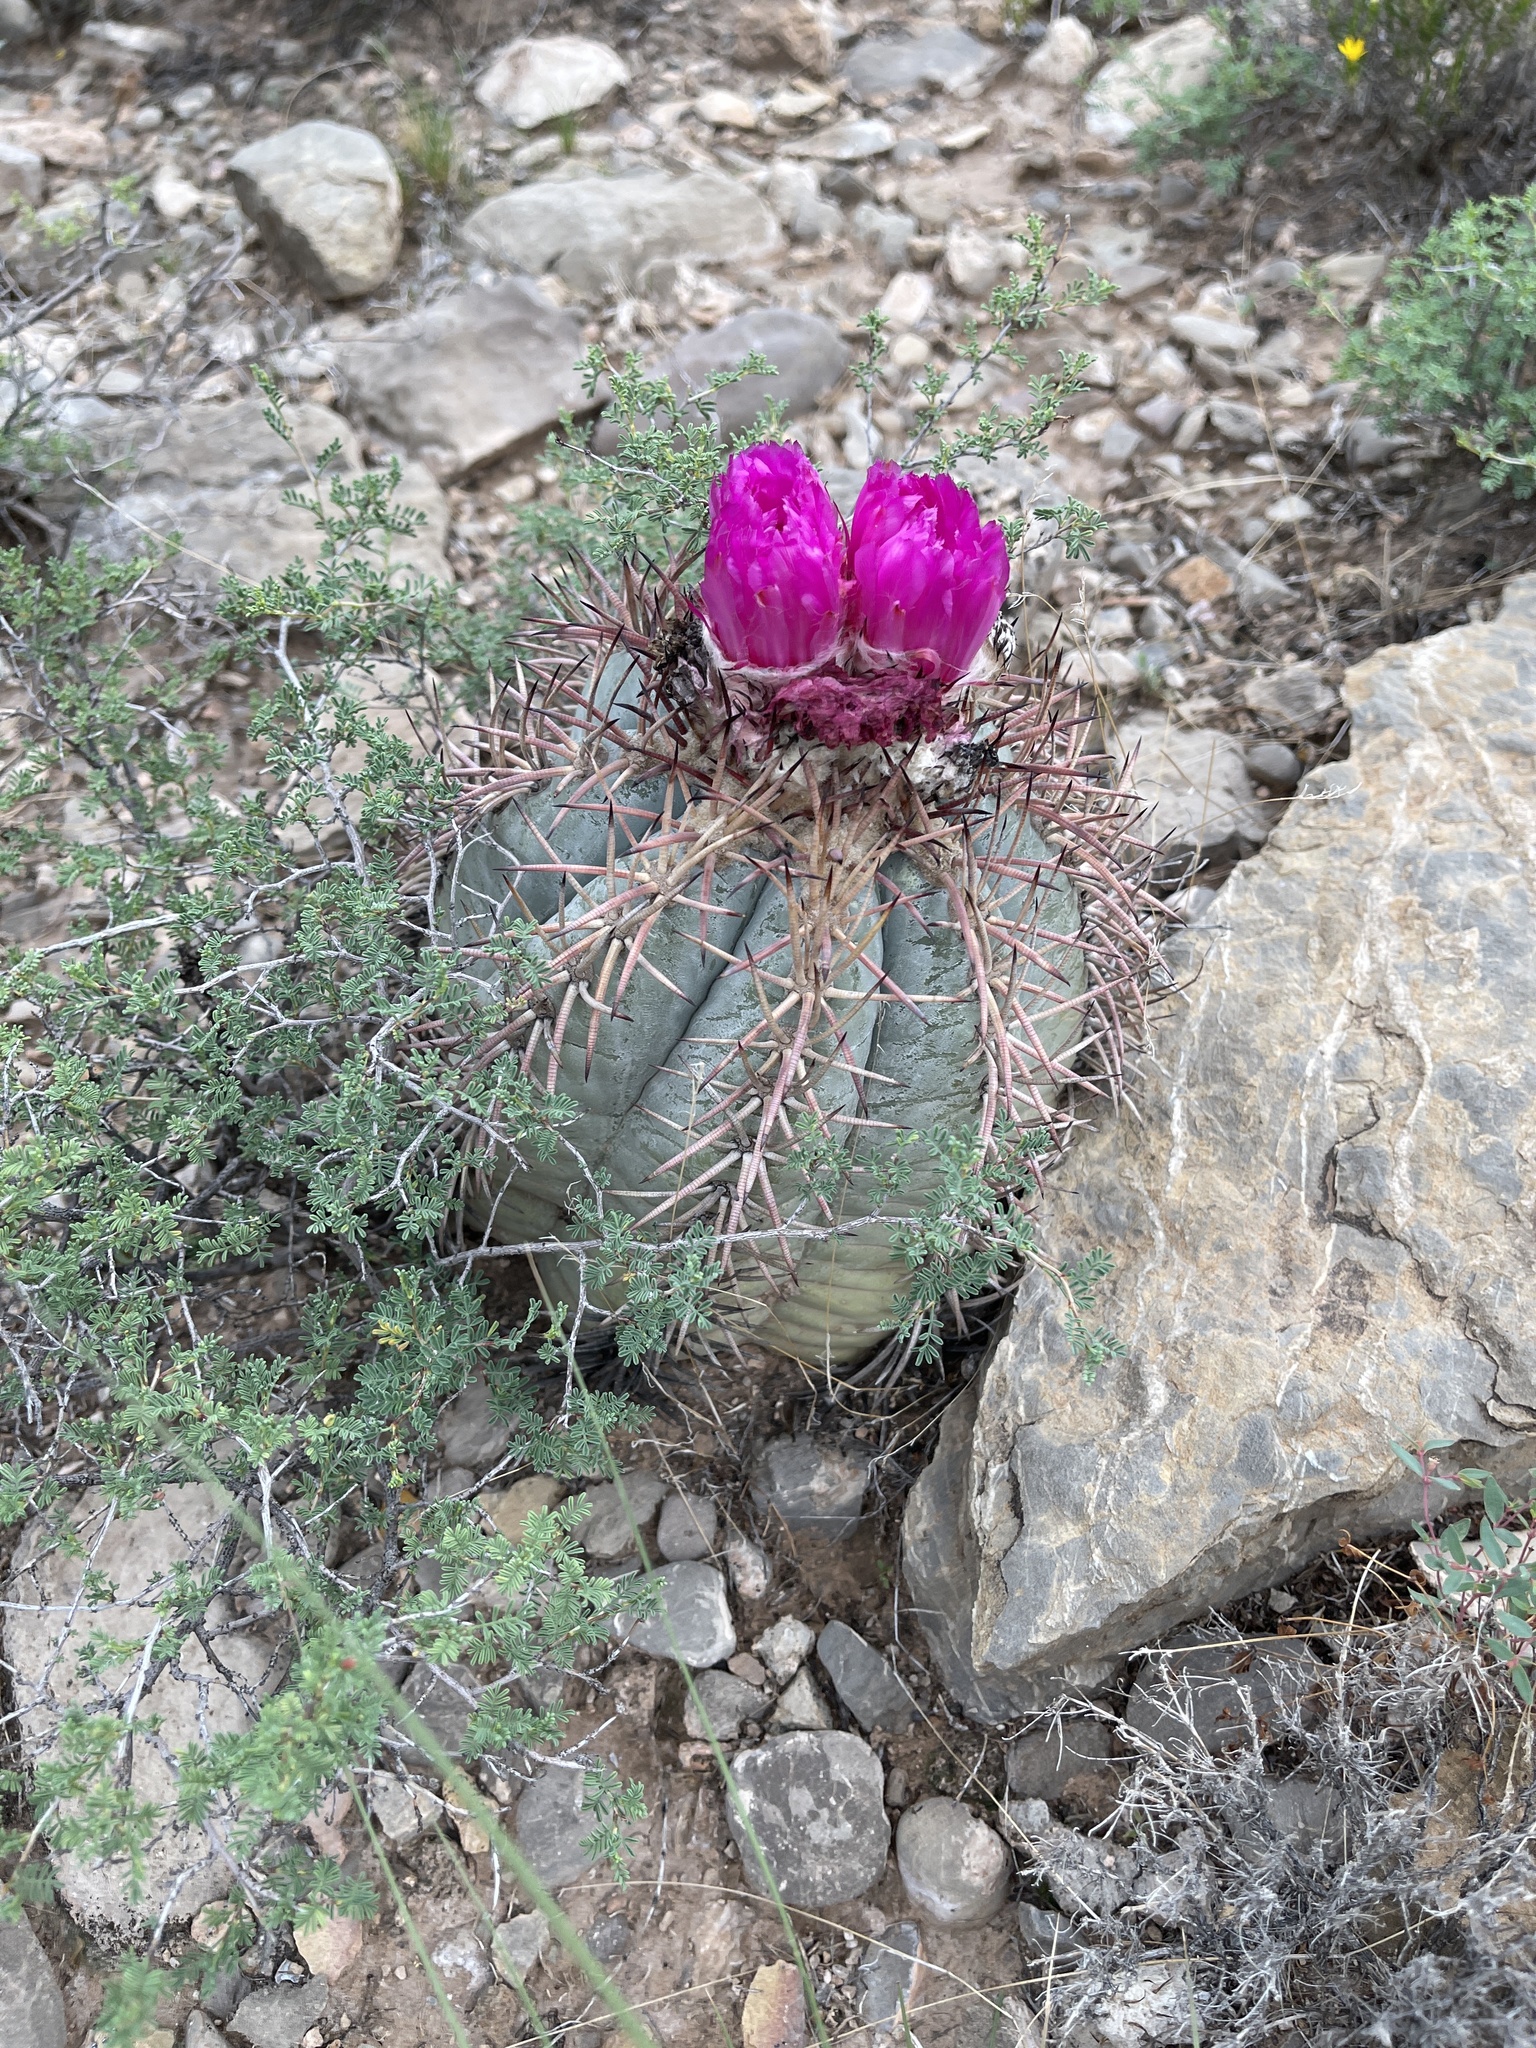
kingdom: Plantae
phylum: Tracheophyta
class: Magnoliopsida
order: Caryophyllales
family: Cactaceae
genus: Echinocactus
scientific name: Echinocactus horizonthalonius
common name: Devilshead
